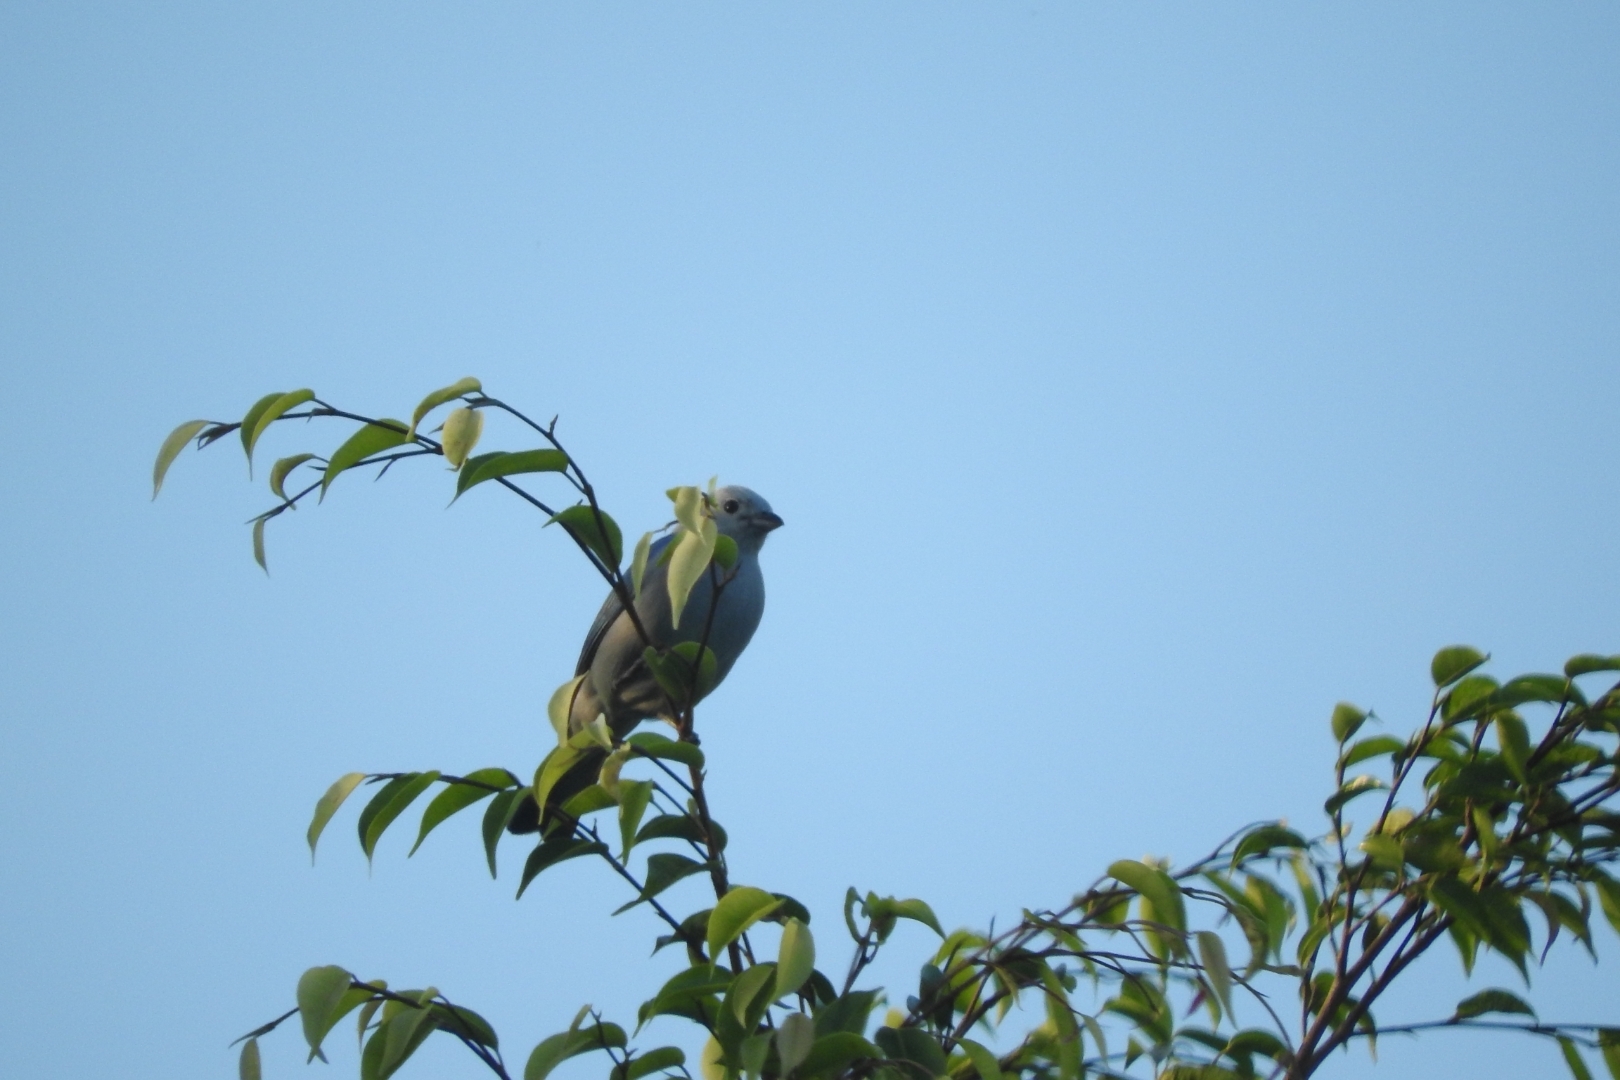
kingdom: Animalia
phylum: Chordata
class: Aves
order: Passeriformes
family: Thraupidae
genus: Thraupis
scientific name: Thraupis episcopus
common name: Blue-grey tanager
